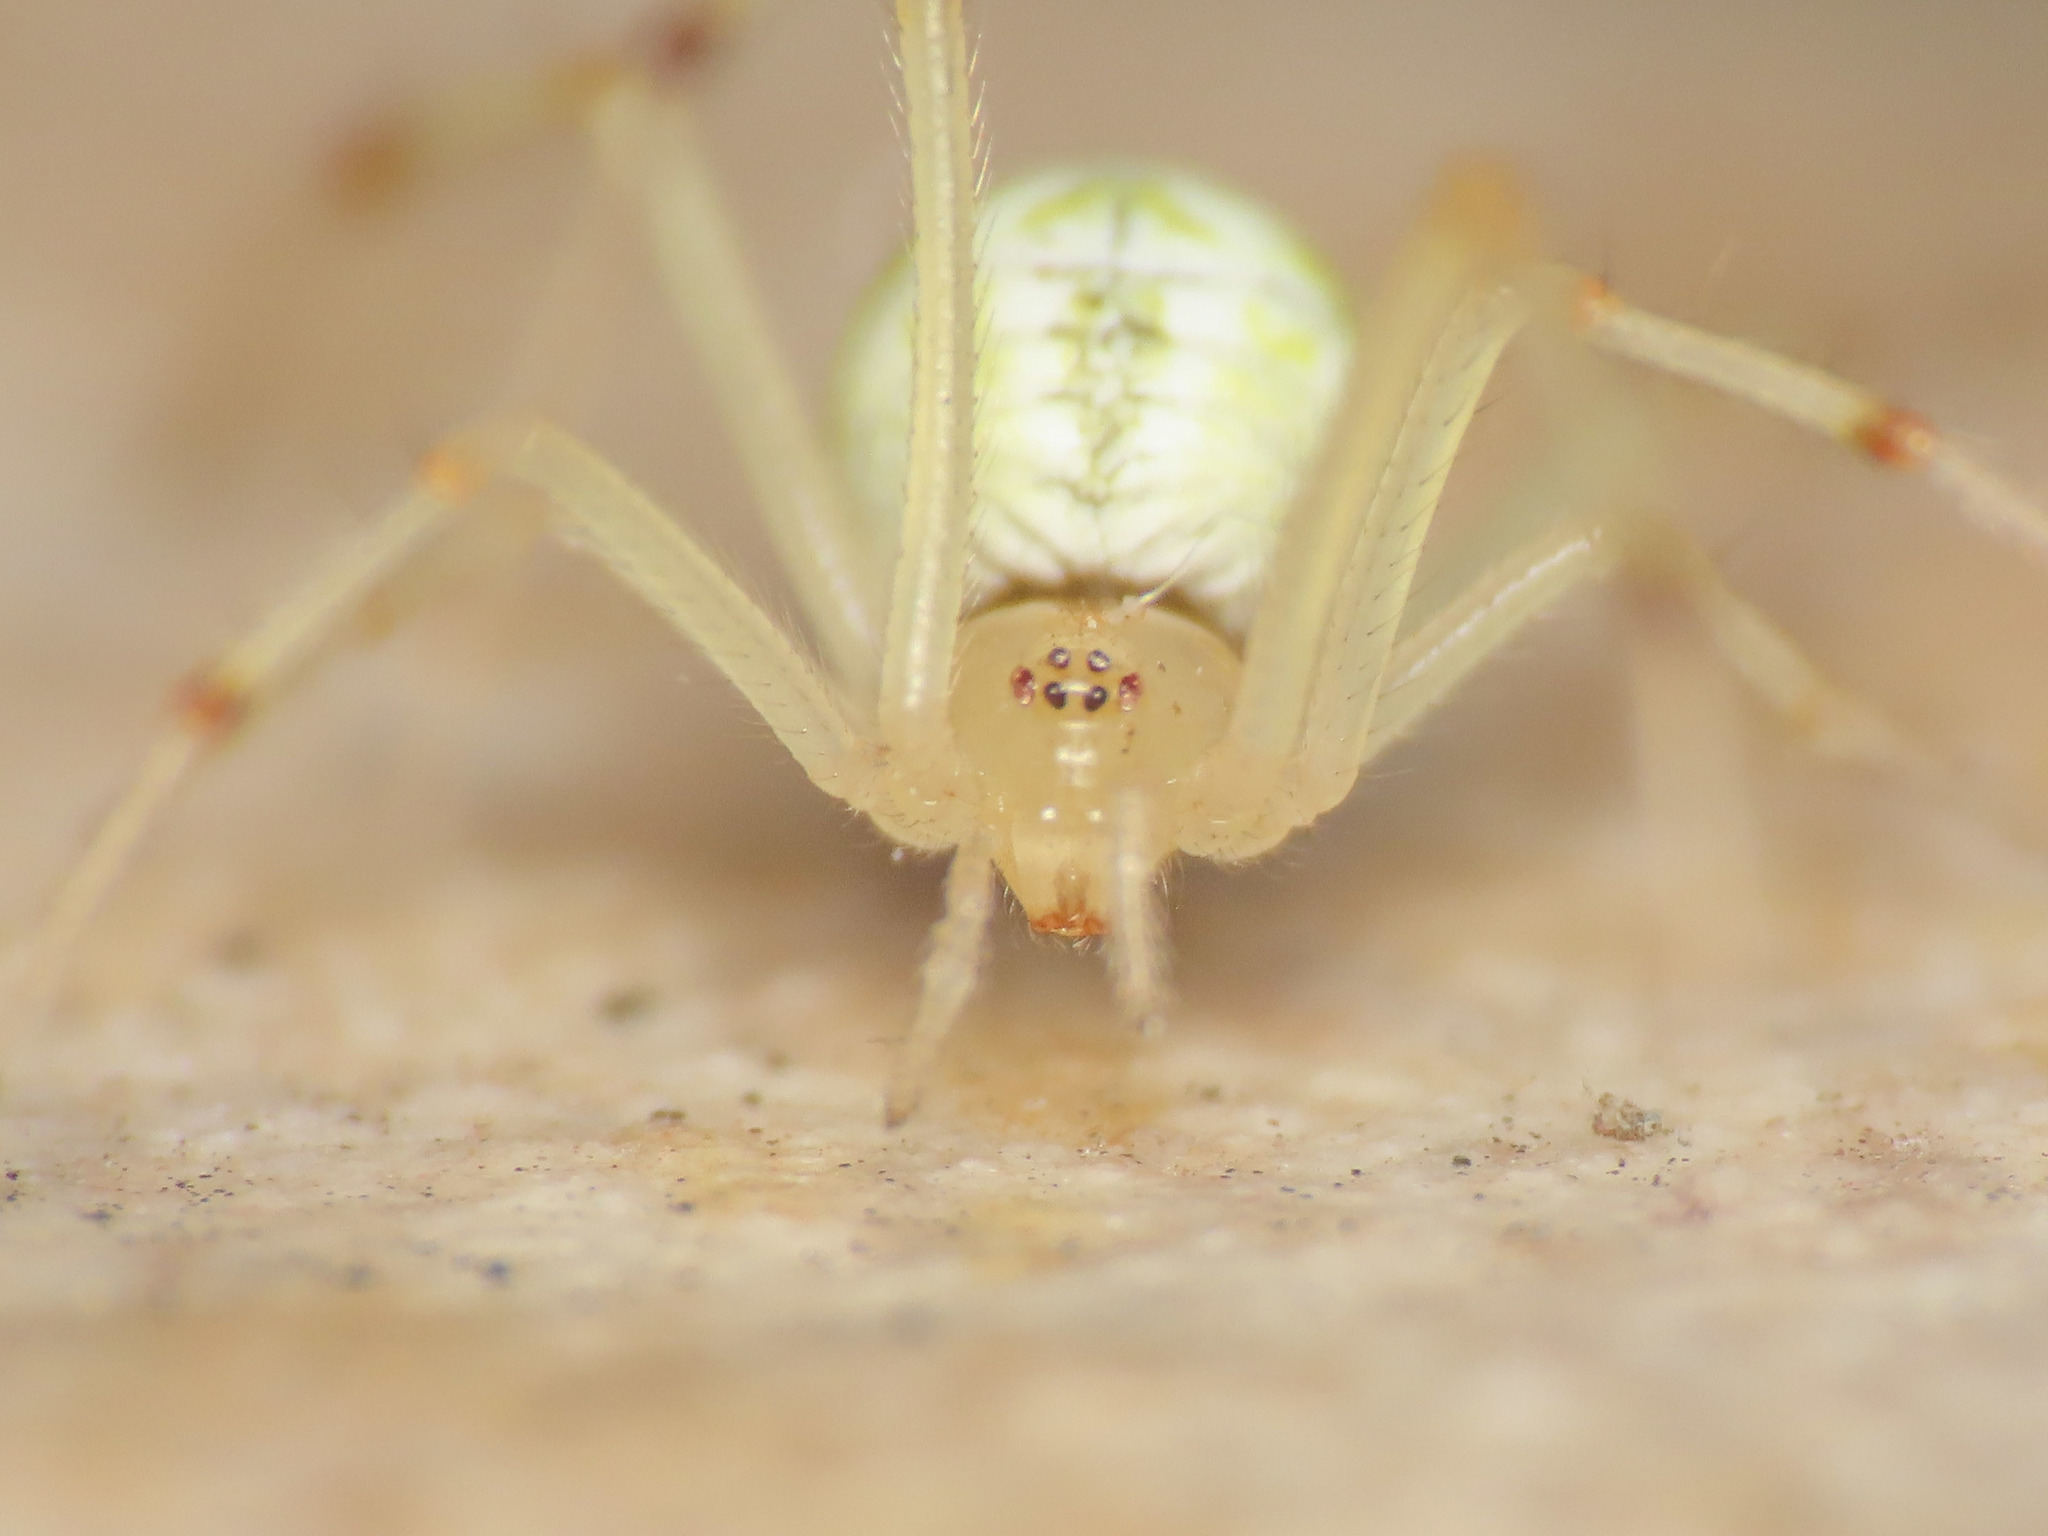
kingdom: Animalia
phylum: Arthropoda
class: Arachnida
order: Araneae
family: Theridiidae
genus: Heterotheridion
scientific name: Heterotheridion nigrovariegatum
